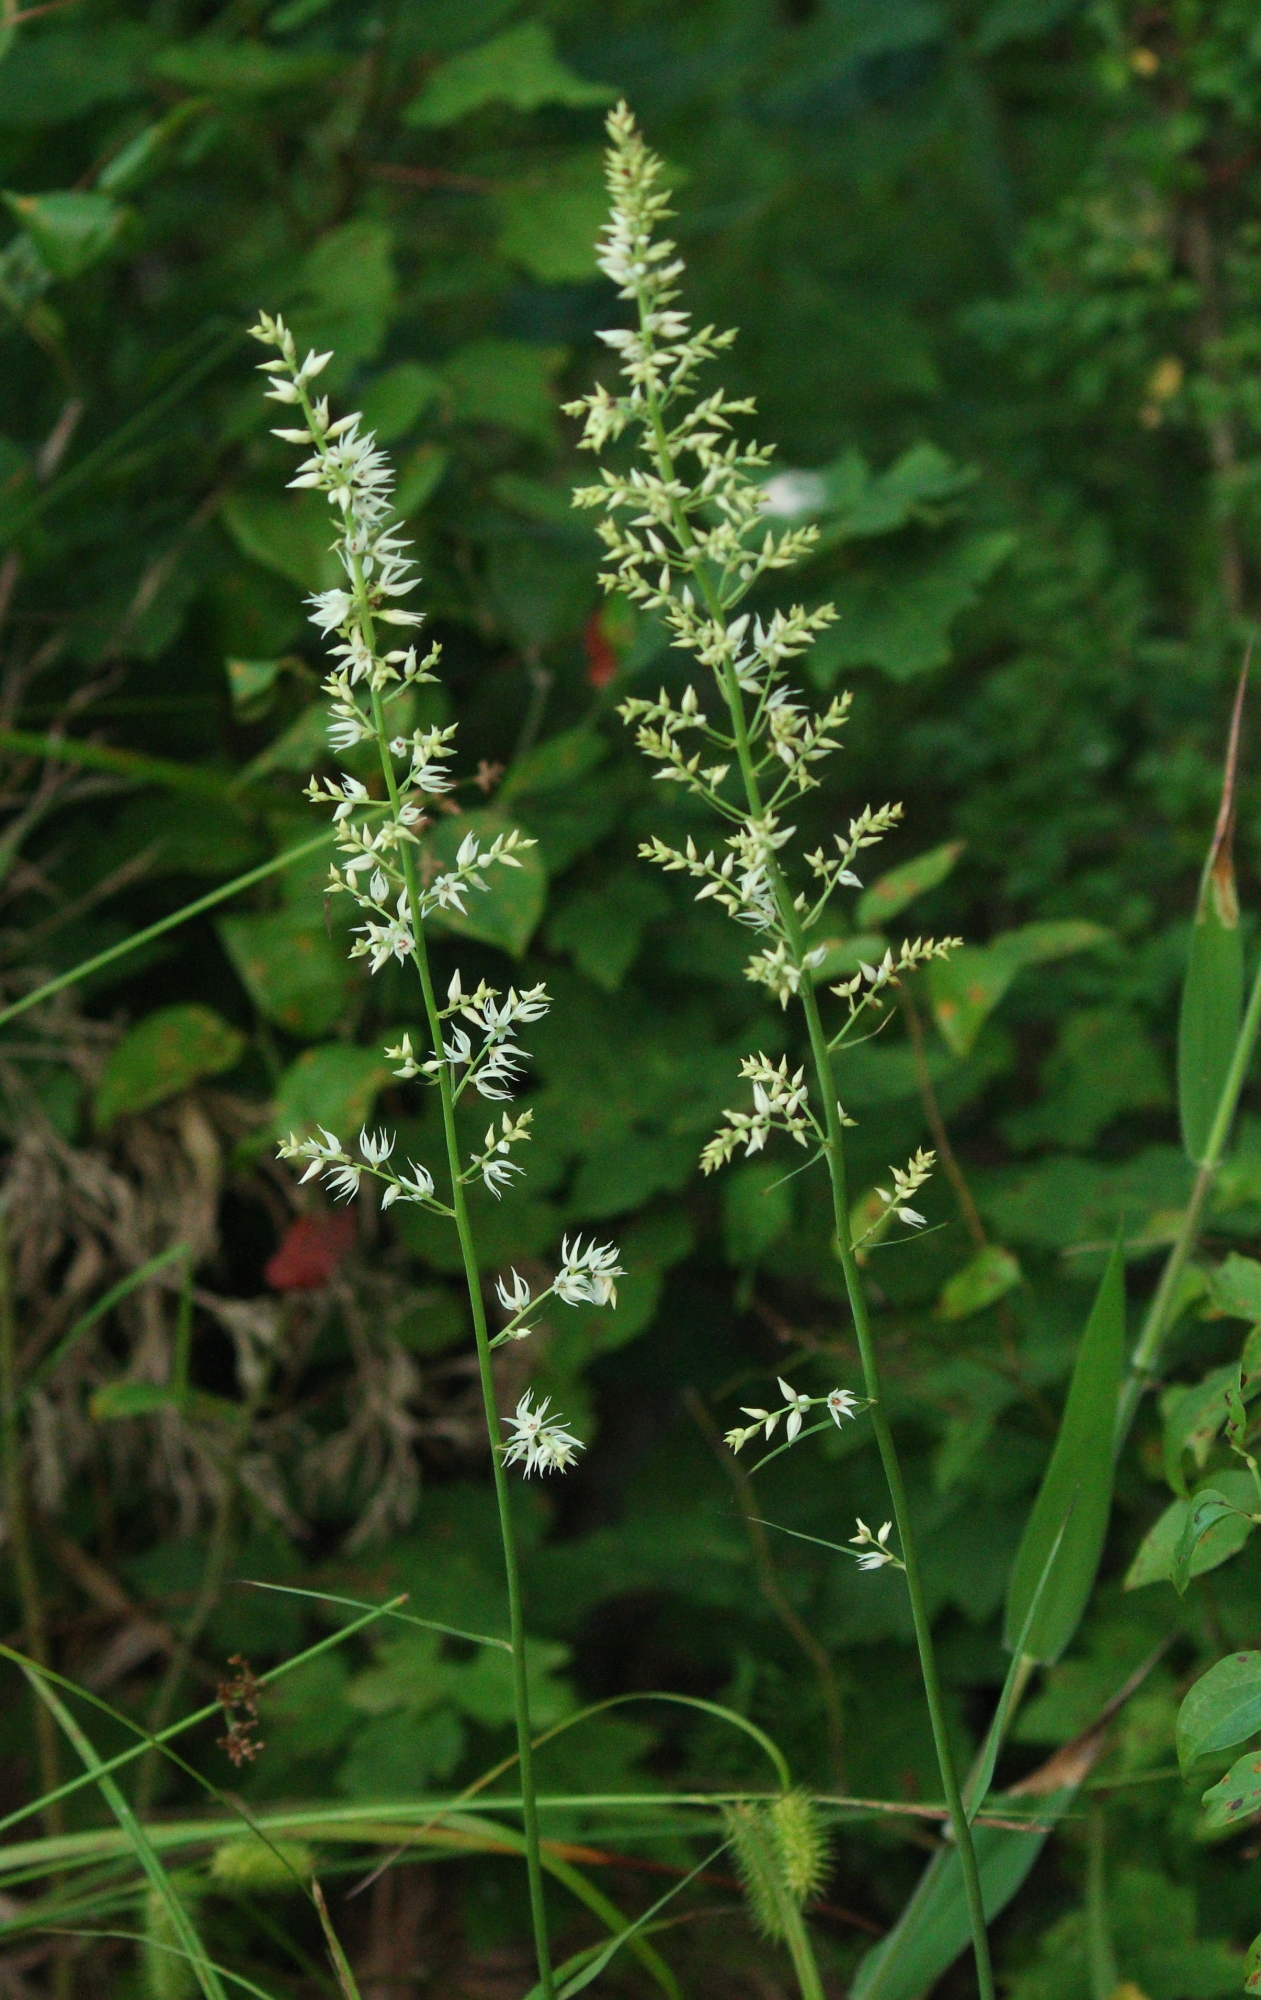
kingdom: Plantae
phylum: Tracheophyta
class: Liliopsida
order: Liliales
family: Melanthiaceae
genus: Stenanthium
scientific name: Stenanthium gramineum
